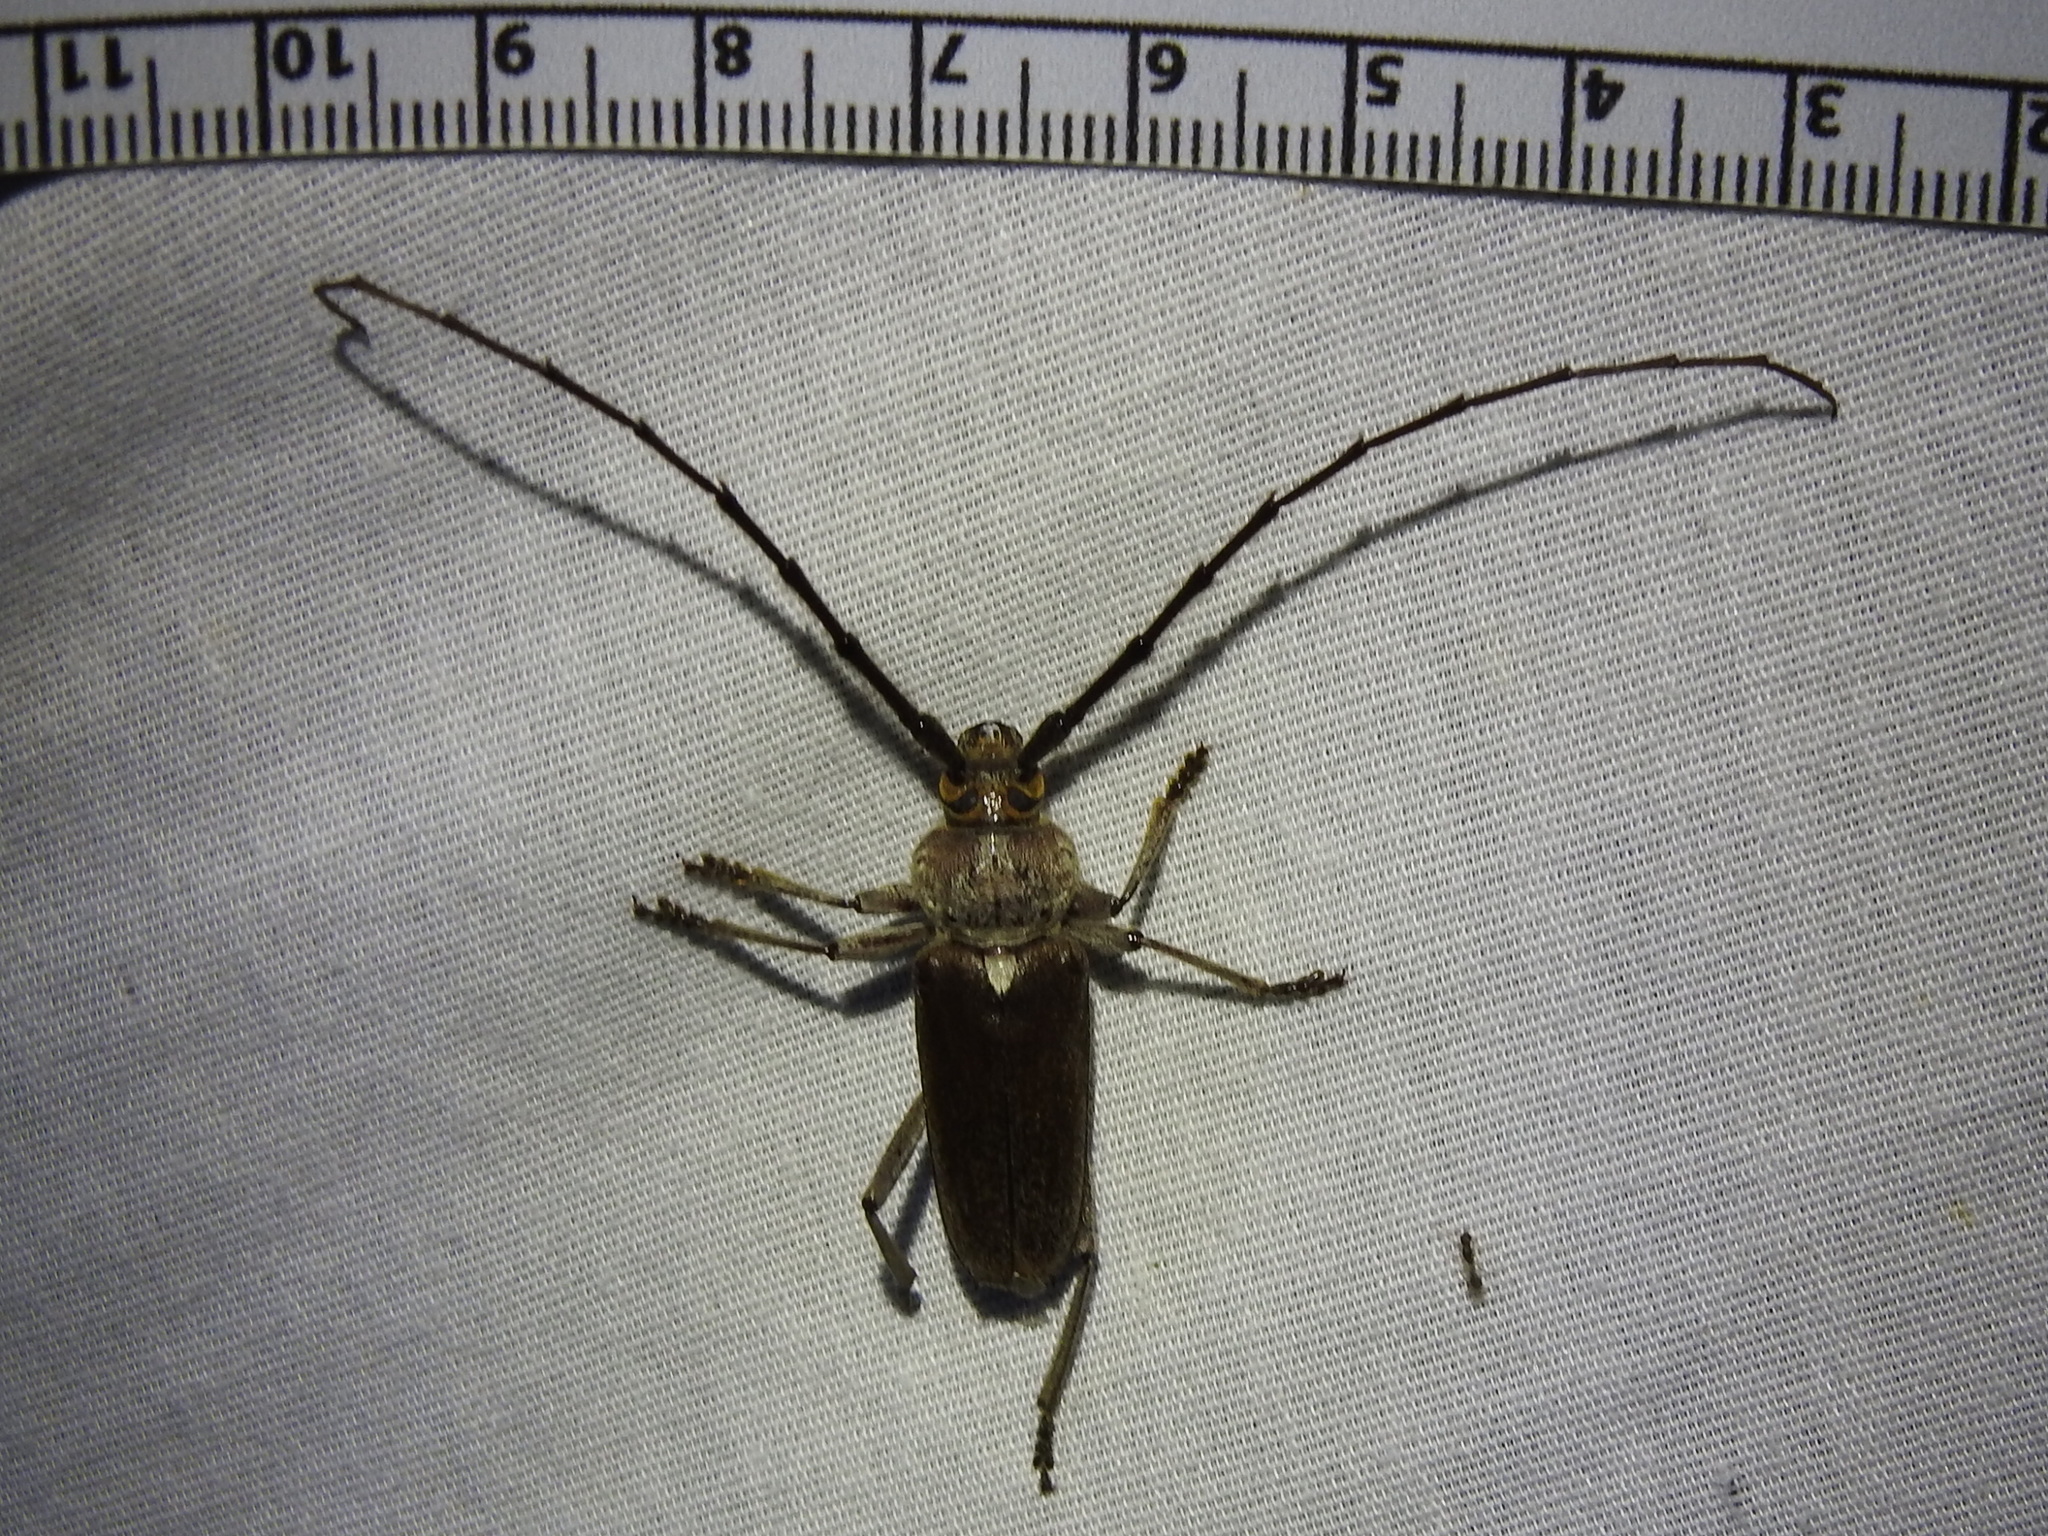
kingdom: Animalia
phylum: Arthropoda
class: Insecta
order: Coleoptera
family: Cerambycidae
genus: Gnaphalodes
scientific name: Gnaphalodes trachyderoides
